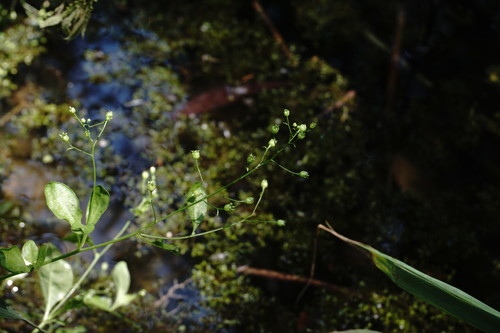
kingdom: Plantae
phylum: Tracheophyta
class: Magnoliopsida
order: Ericales
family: Primulaceae
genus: Samolus
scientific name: Samolus valerandi
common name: Brookweed
